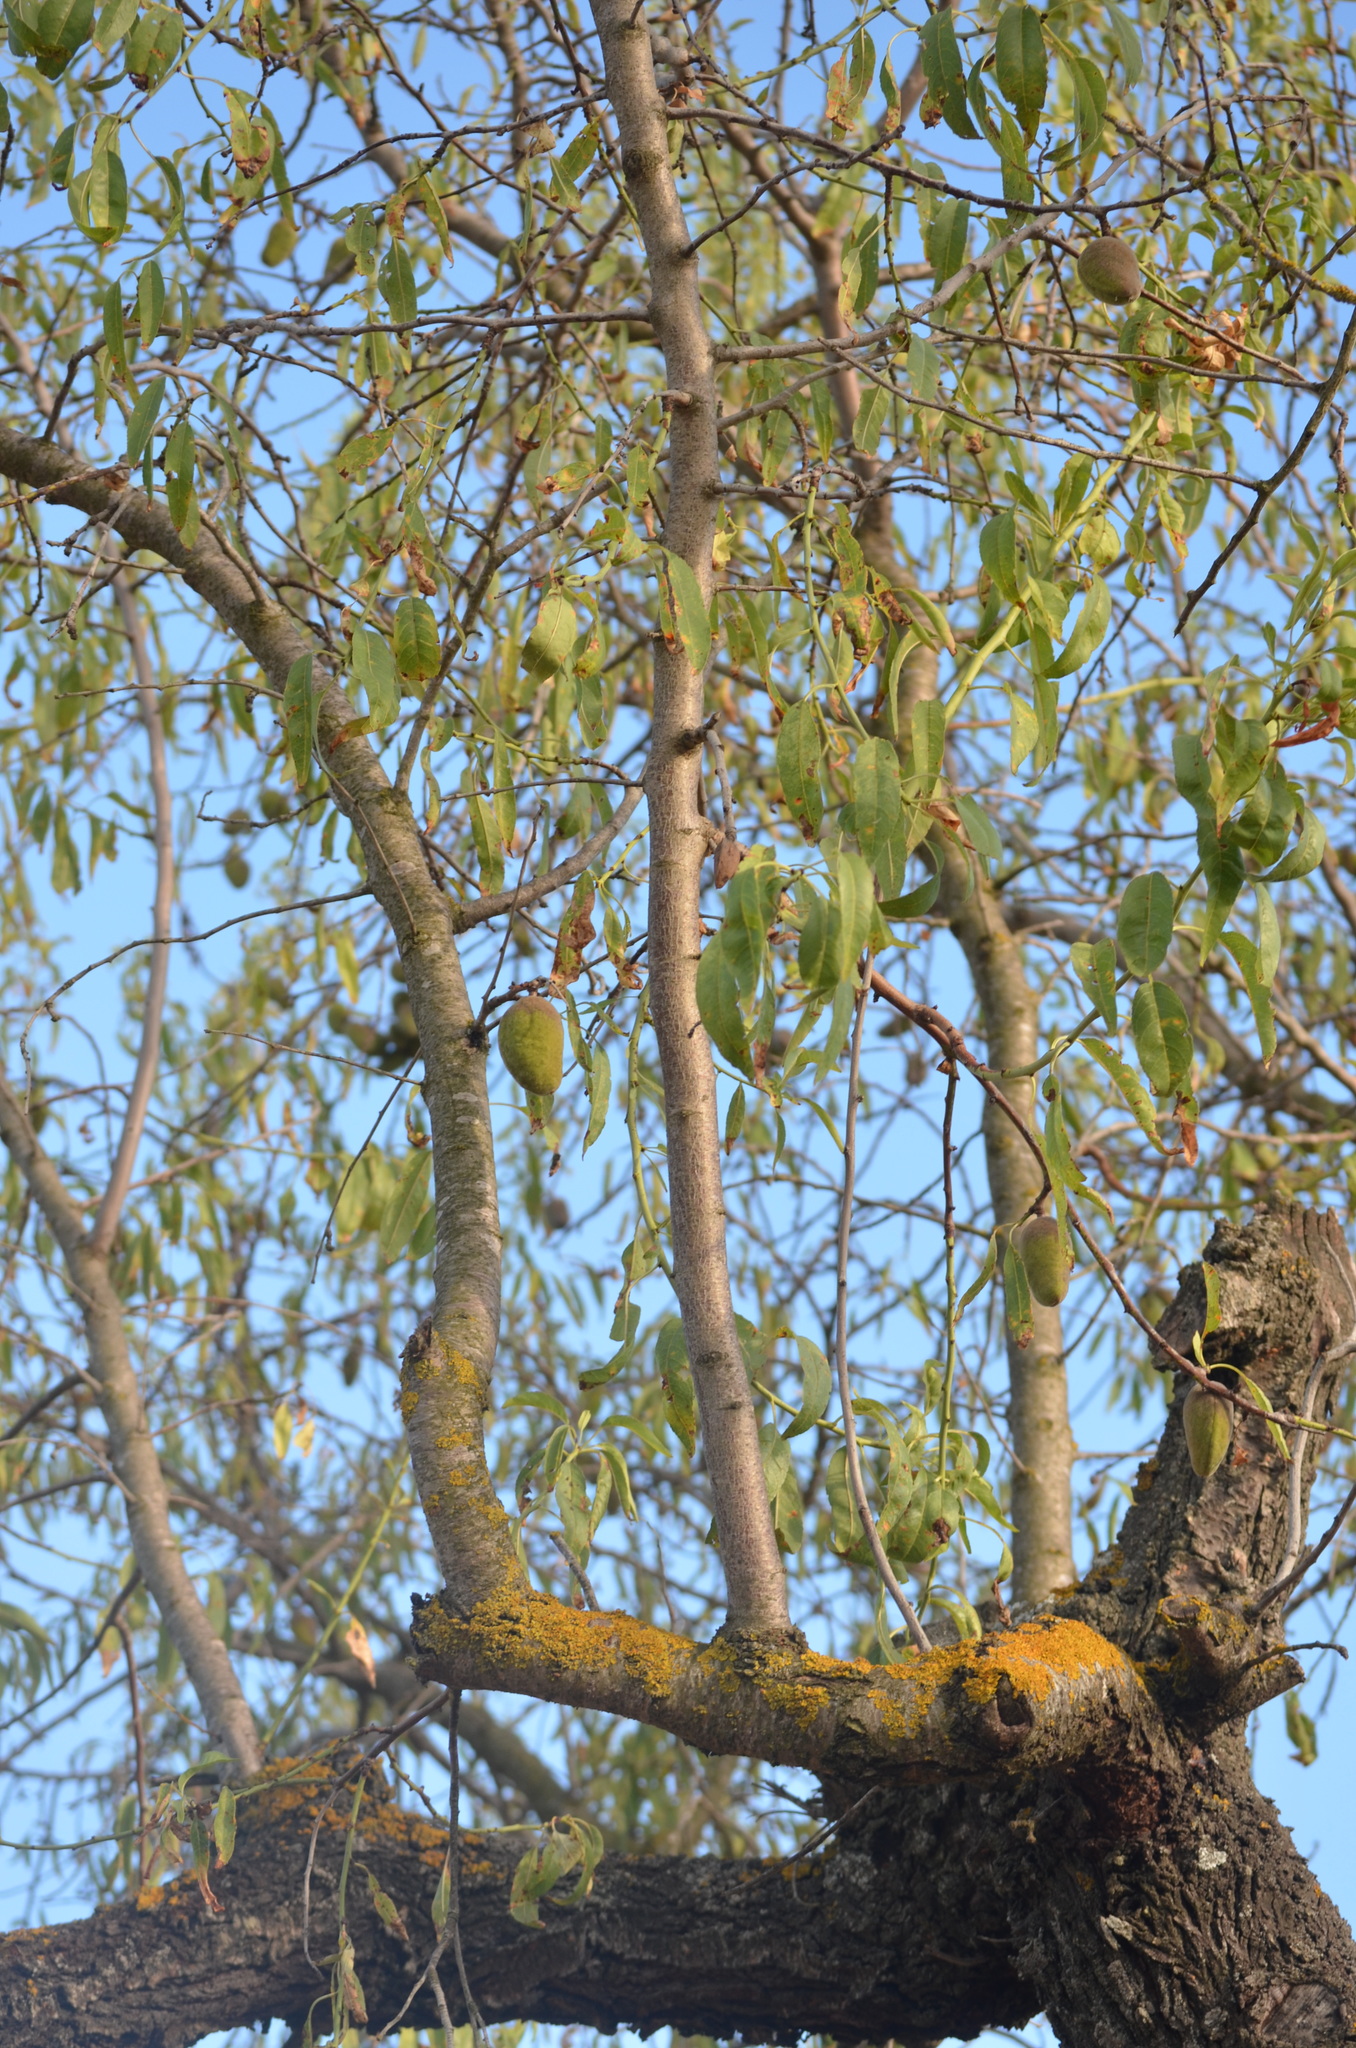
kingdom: Plantae
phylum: Tracheophyta
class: Magnoliopsida
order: Rosales
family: Rosaceae
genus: Prunus
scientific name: Prunus amygdalus
